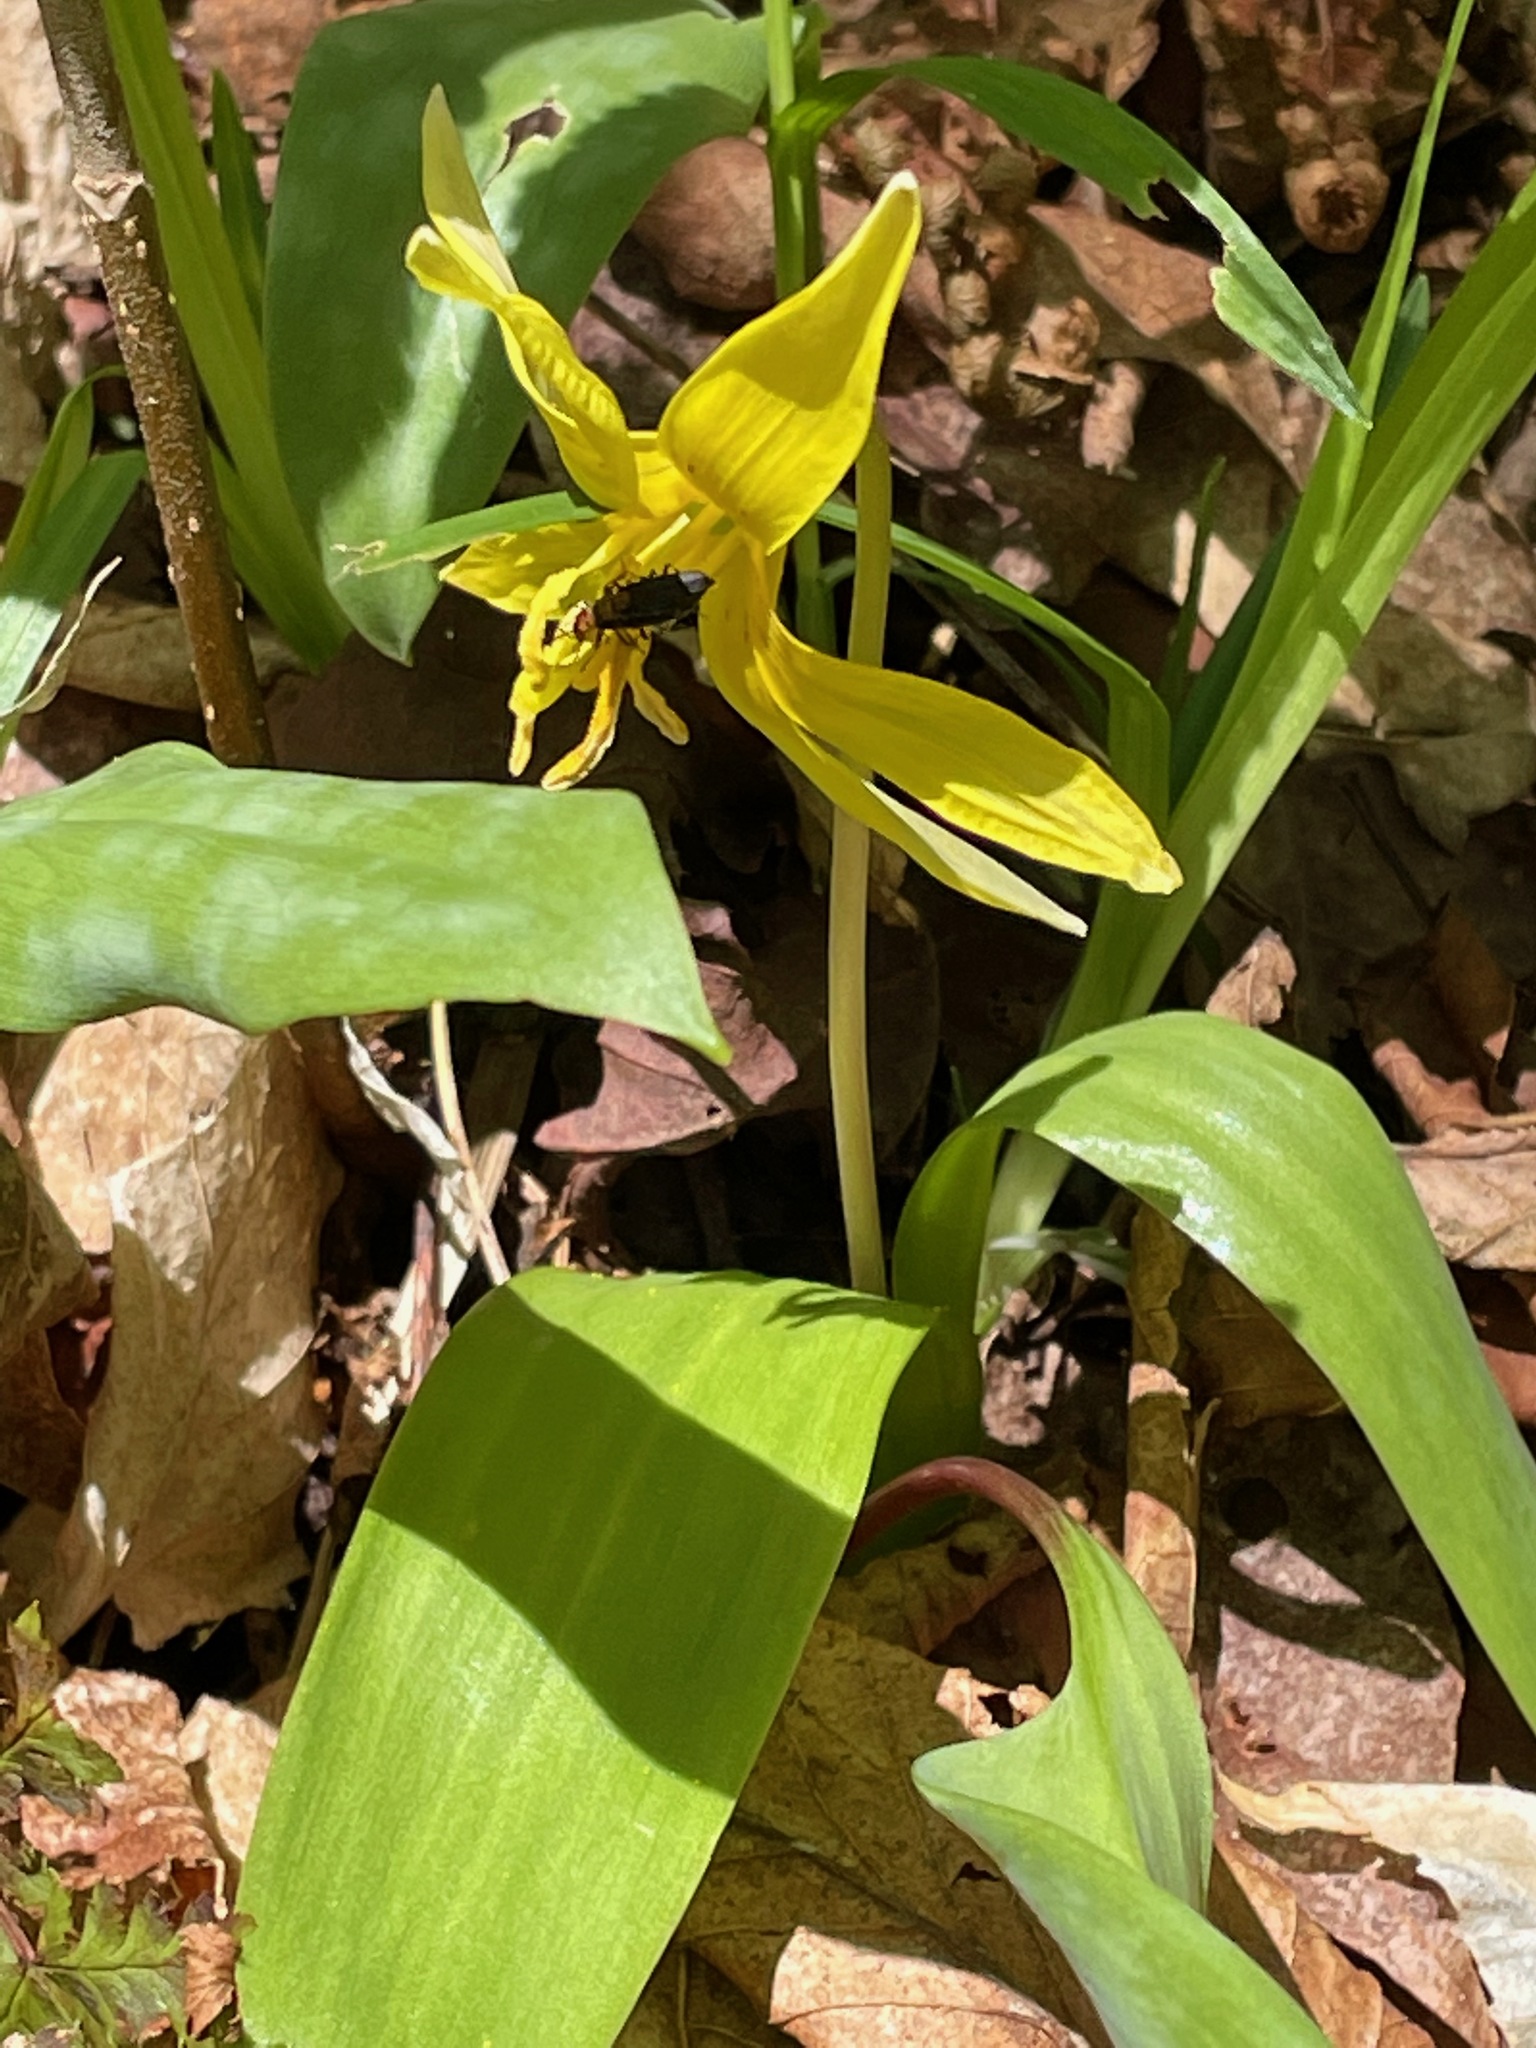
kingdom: Plantae
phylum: Tracheophyta
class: Liliopsida
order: Liliales
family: Liliaceae
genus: Erythronium
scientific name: Erythronium americanum
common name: Yellow adder's-tongue
